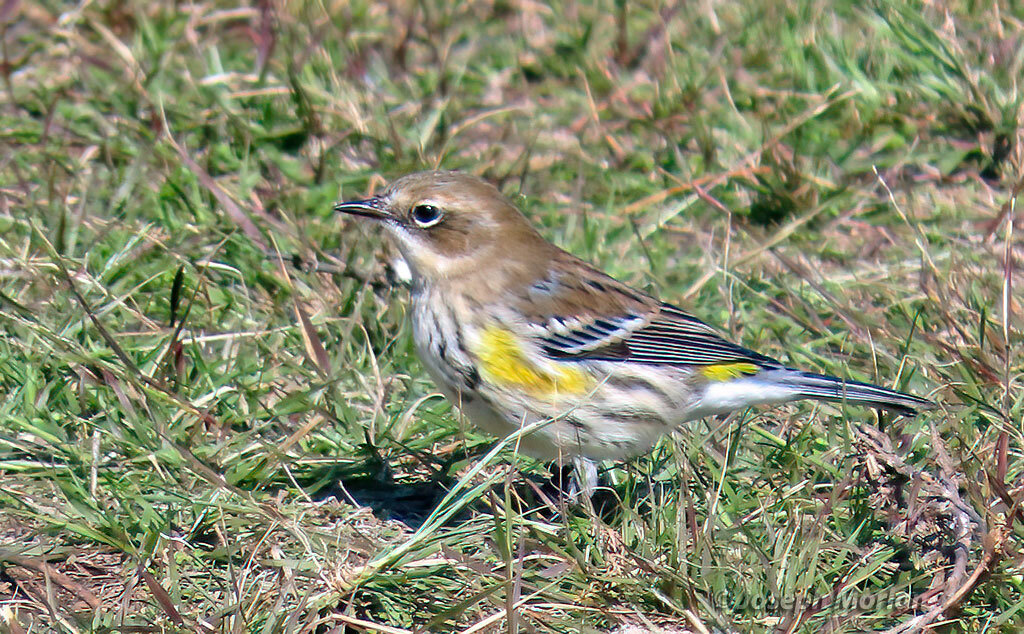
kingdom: Animalia
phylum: Chordata
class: Aves
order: Passeriformes
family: Parulidae
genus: Setophaga
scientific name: Setophaga coronata
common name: Myrtle warbler
